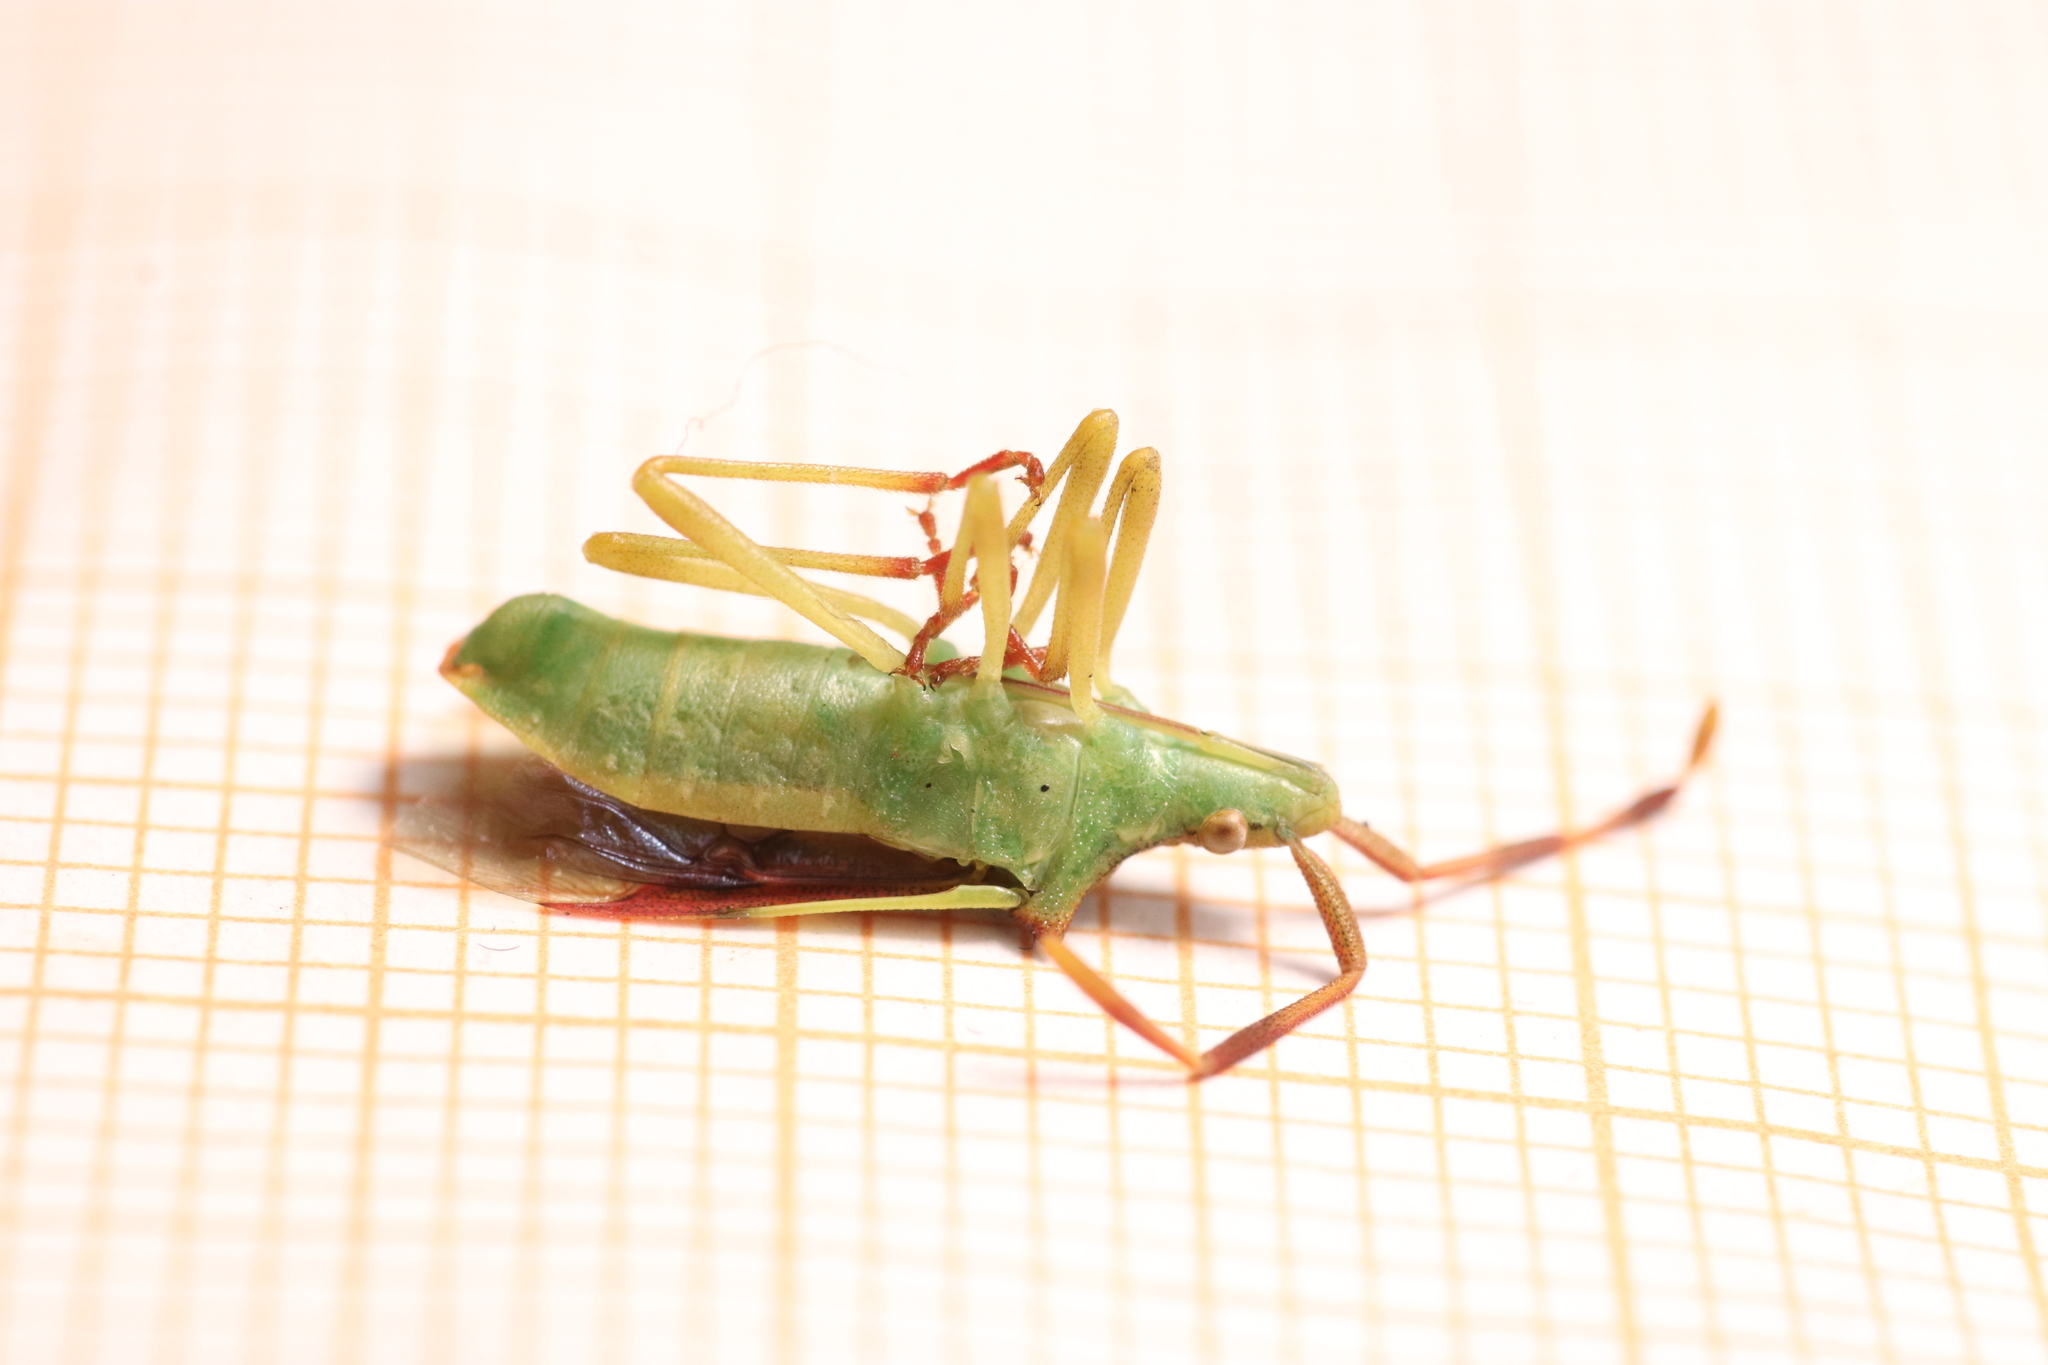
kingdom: Animalia
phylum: Arthropoda
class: Insecta
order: Hemiptera
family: Coreidae
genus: Gonocerus
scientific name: Gonocerus juniperi
